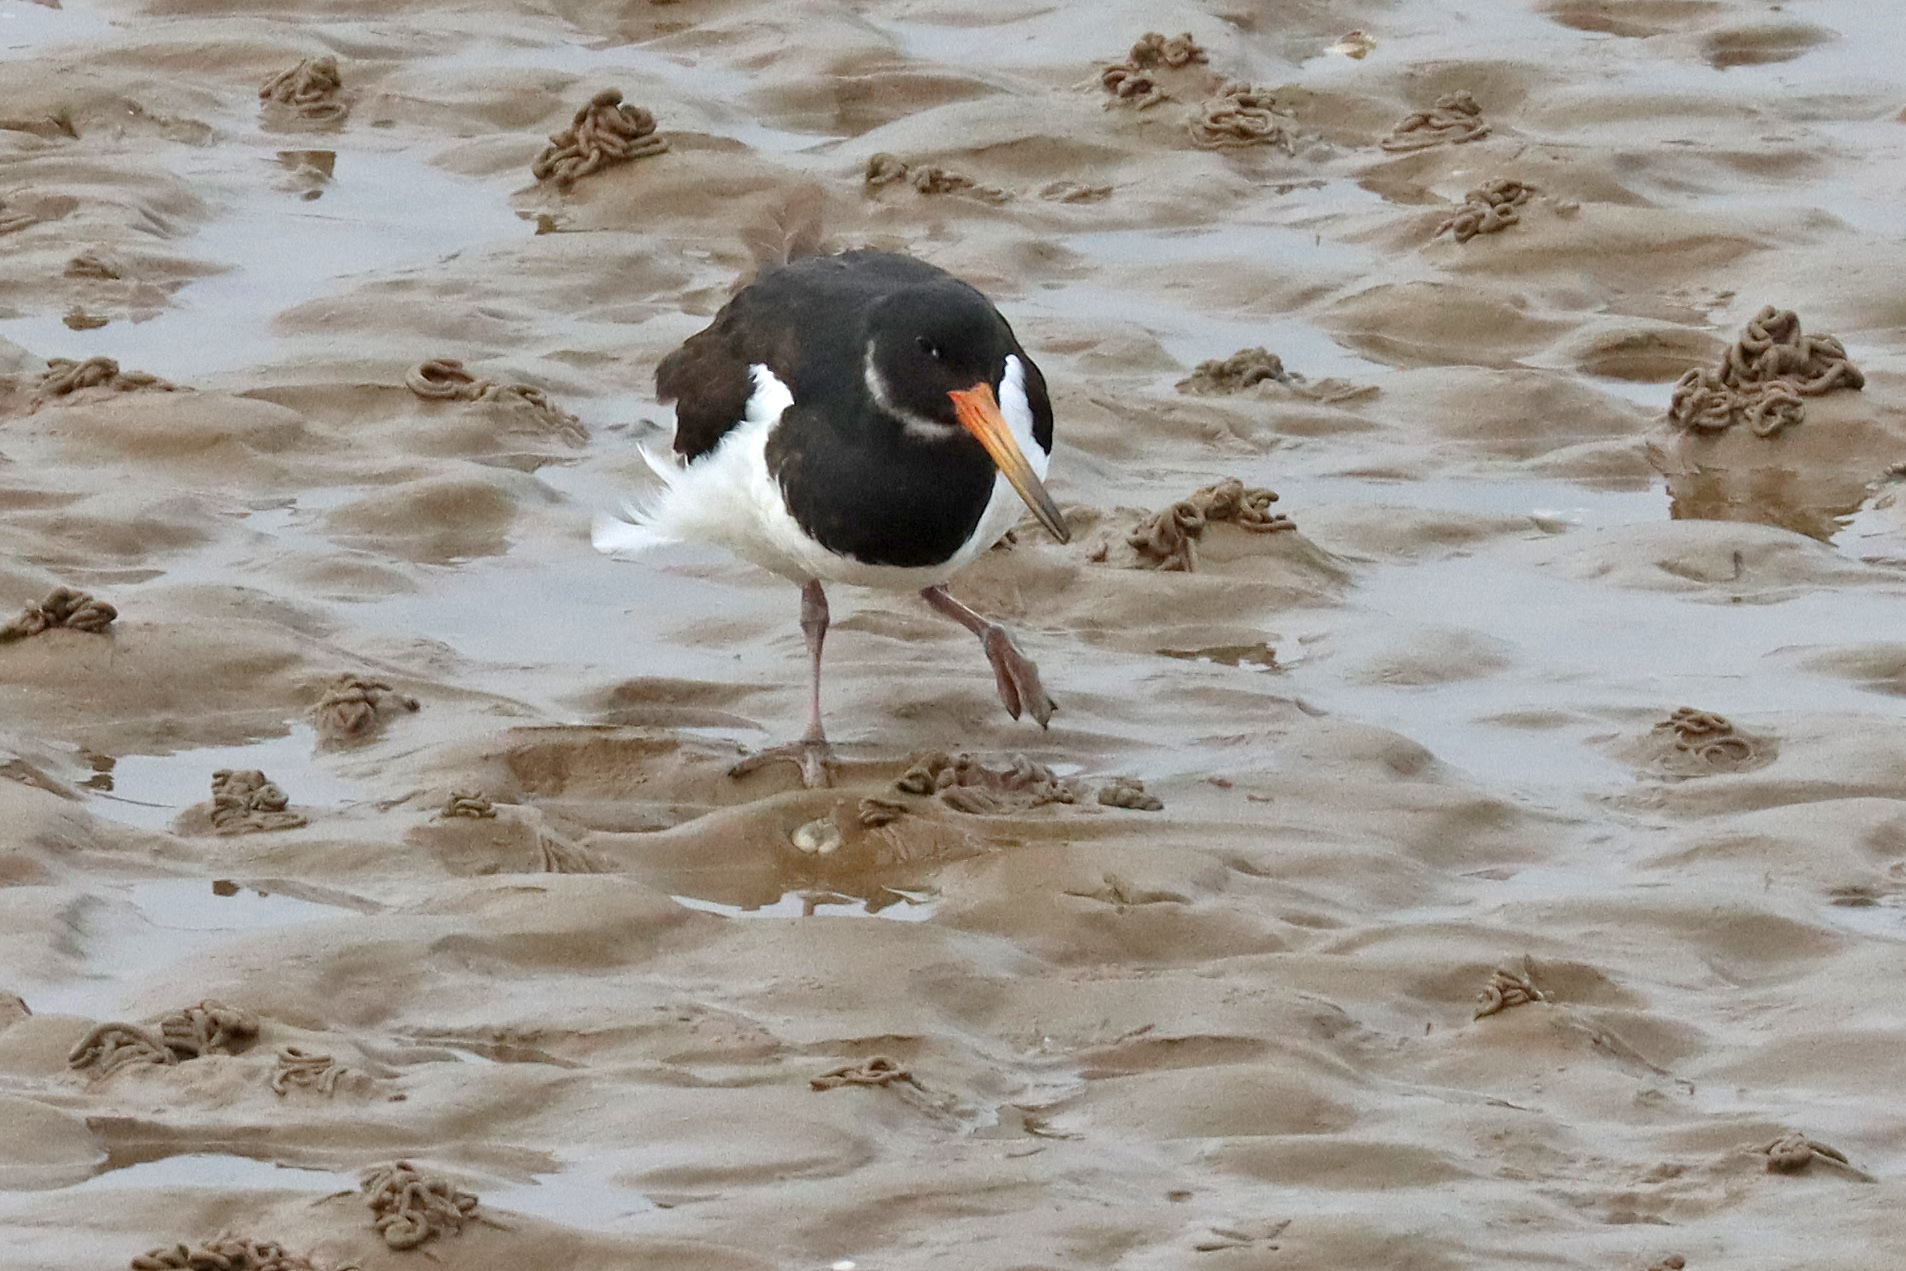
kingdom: Animalia
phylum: Chordata
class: Aves
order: Charadriiformes
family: Haematopodidae
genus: Haematopus
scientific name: Haematopus ostralegus
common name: Eurasian oystercatcher
